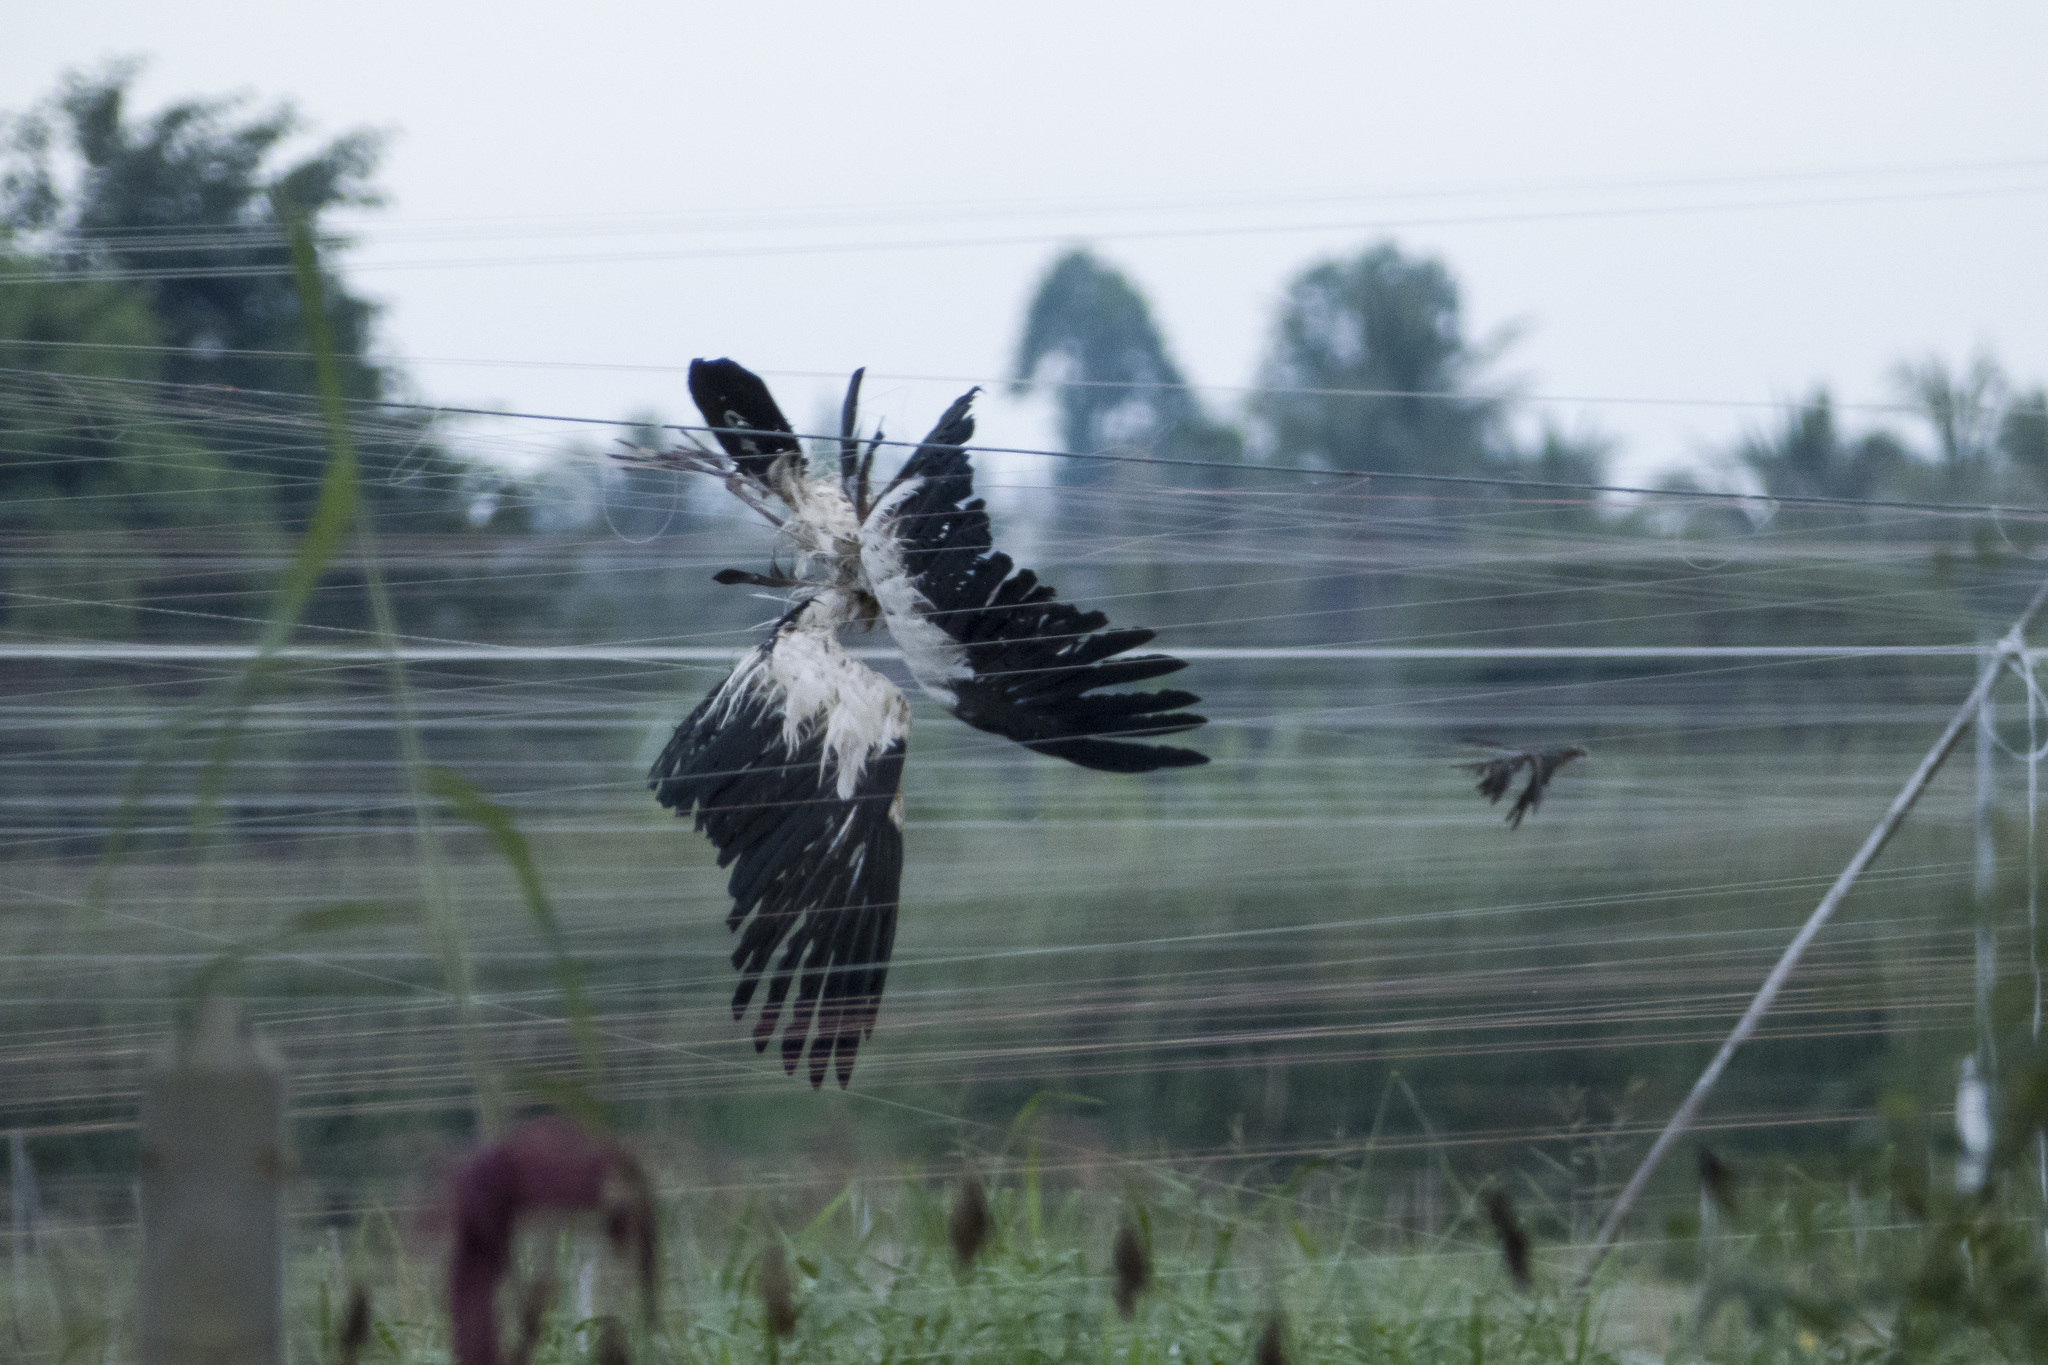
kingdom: Animalia
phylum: Chordata
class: Aves
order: Ciconiiformes
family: Ciconiidae
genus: Anastomus
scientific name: Anastomus oscitans
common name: Asian openbill
